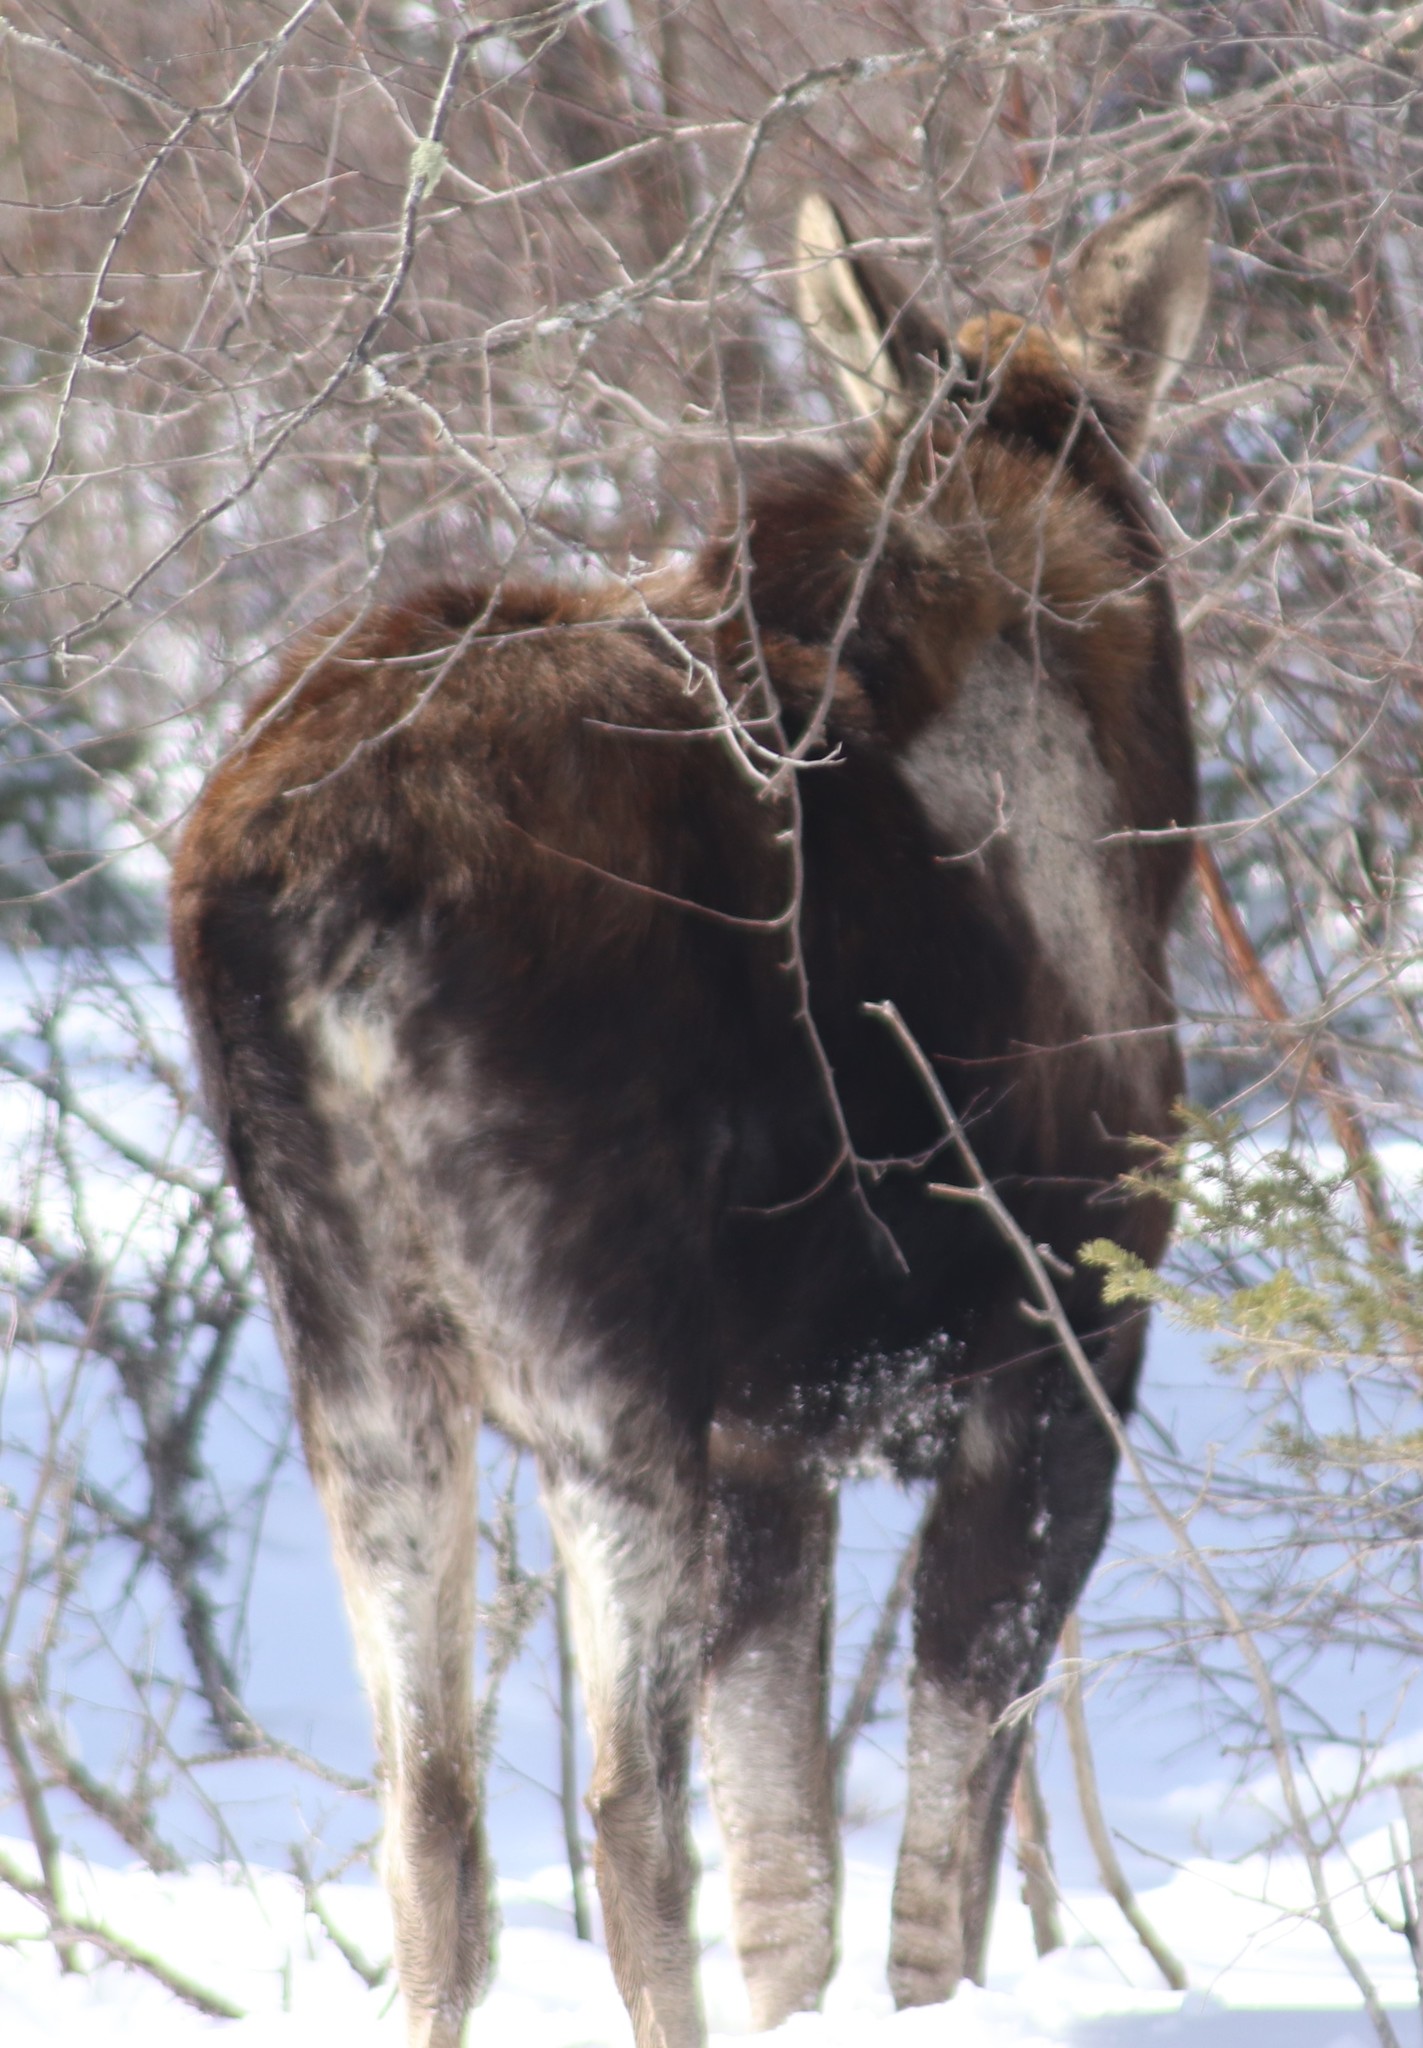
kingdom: Animalia
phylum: Chordata
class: Mammalia
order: Artiodactyla
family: Cervidae
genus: Alces
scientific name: Alces alces
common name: Moose
